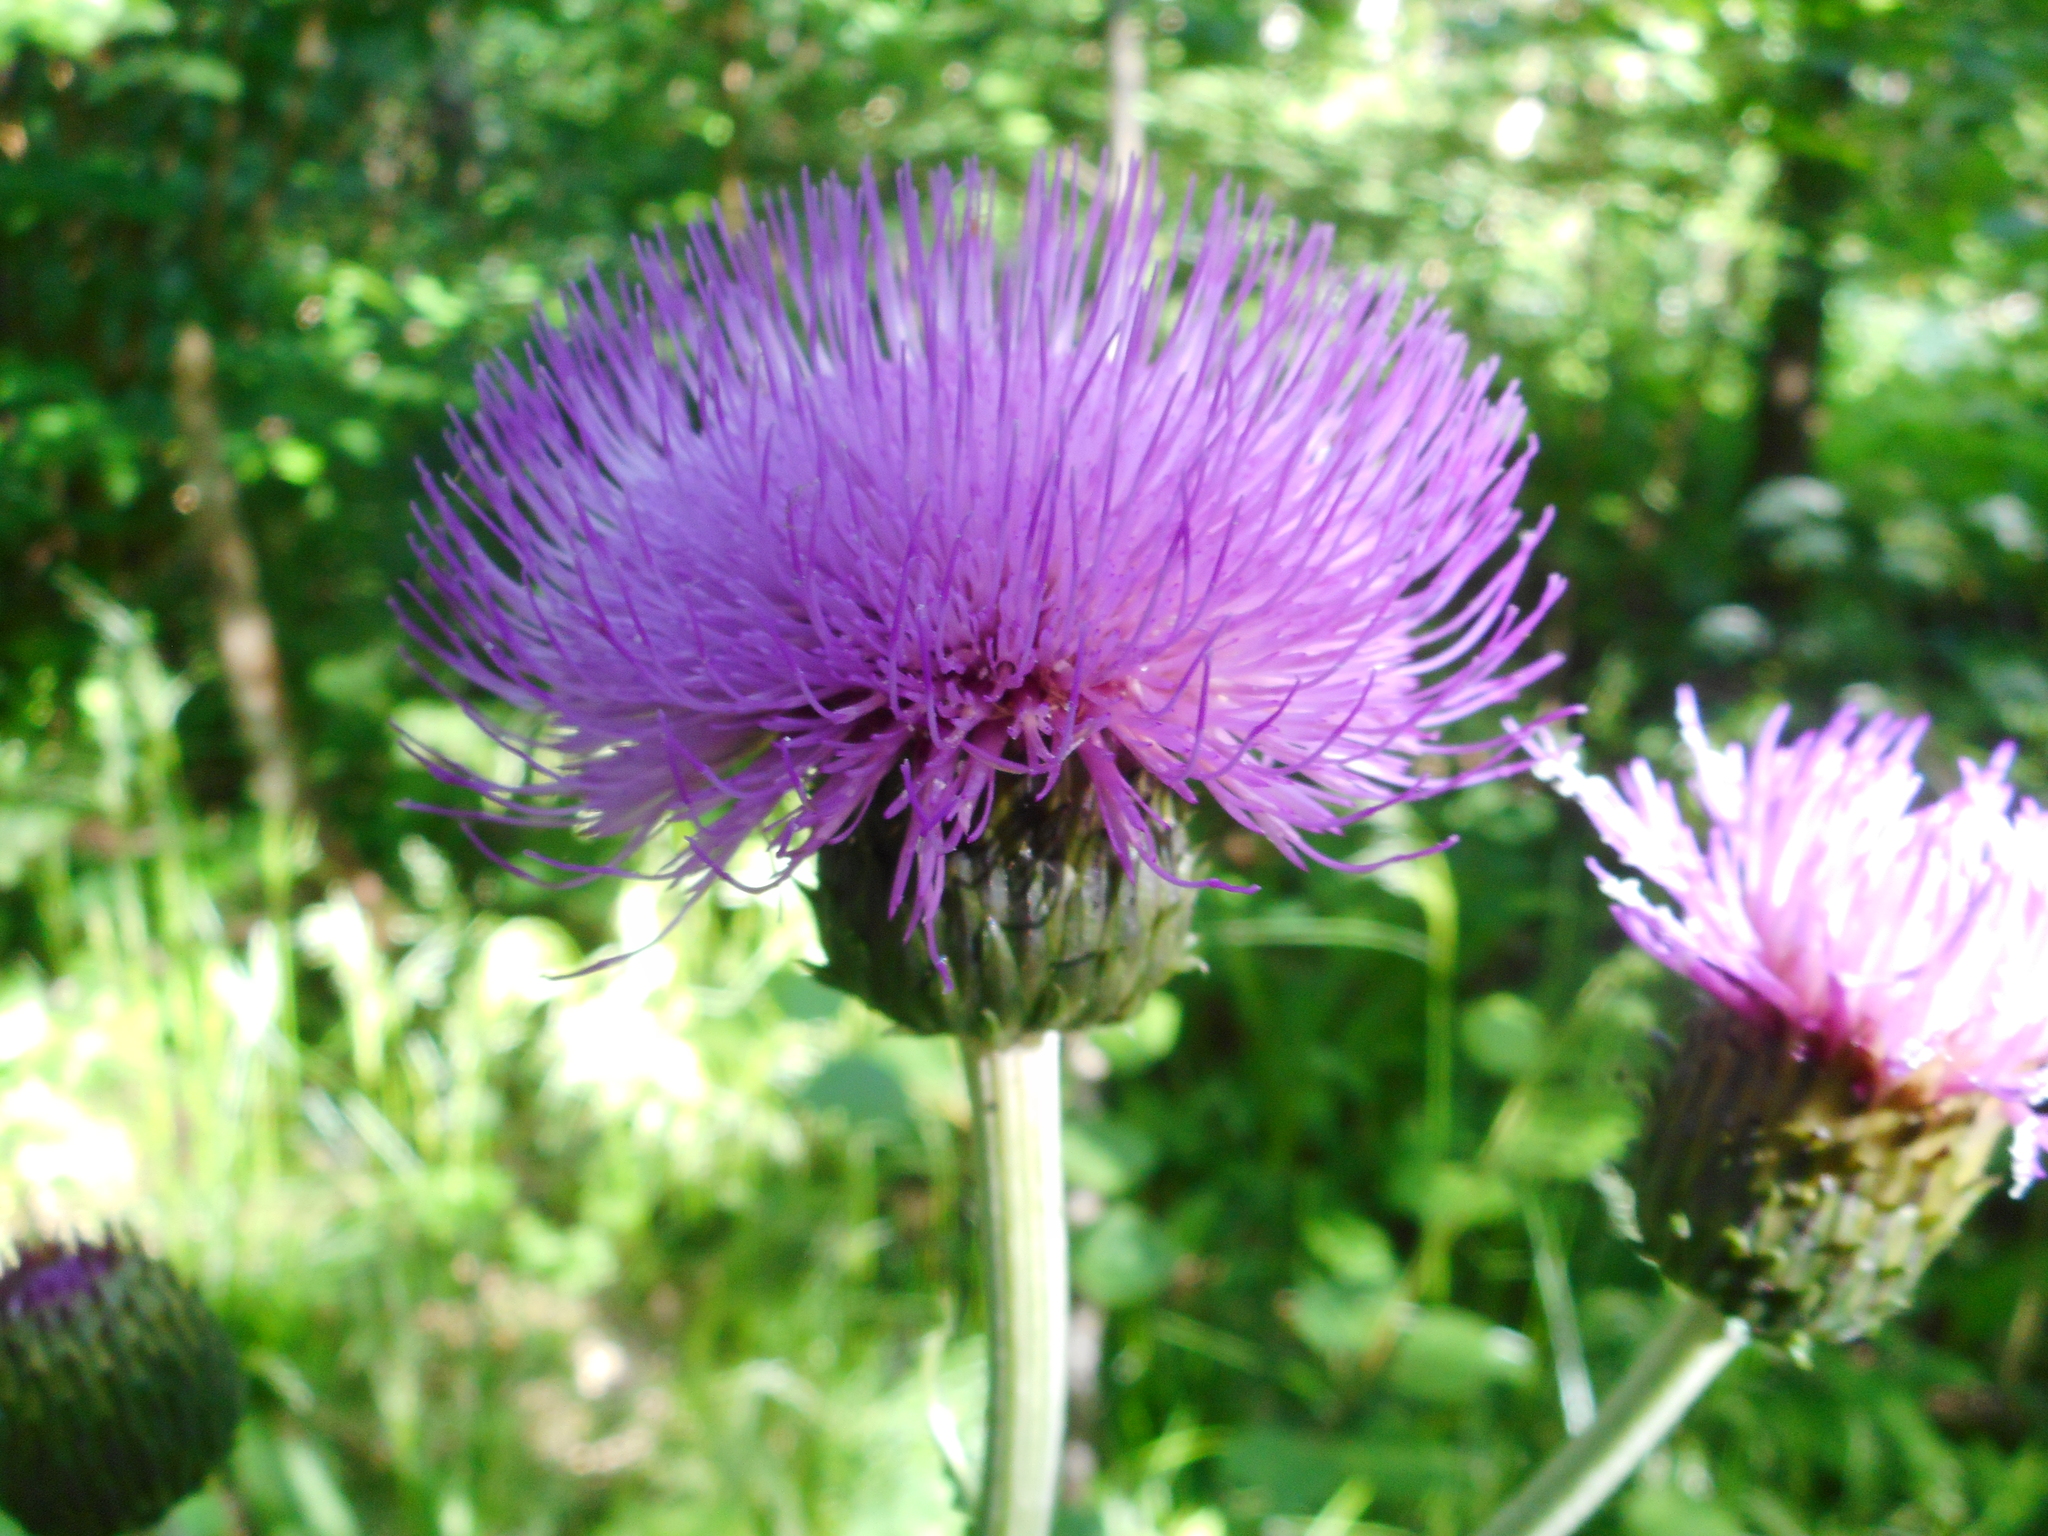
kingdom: Plantae
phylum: Tracheophyta
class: Magnoliopsida
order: Asterales
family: Asteraceae
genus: Cirsium
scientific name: Cirsium heterophyllum
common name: Melancholy thistle
